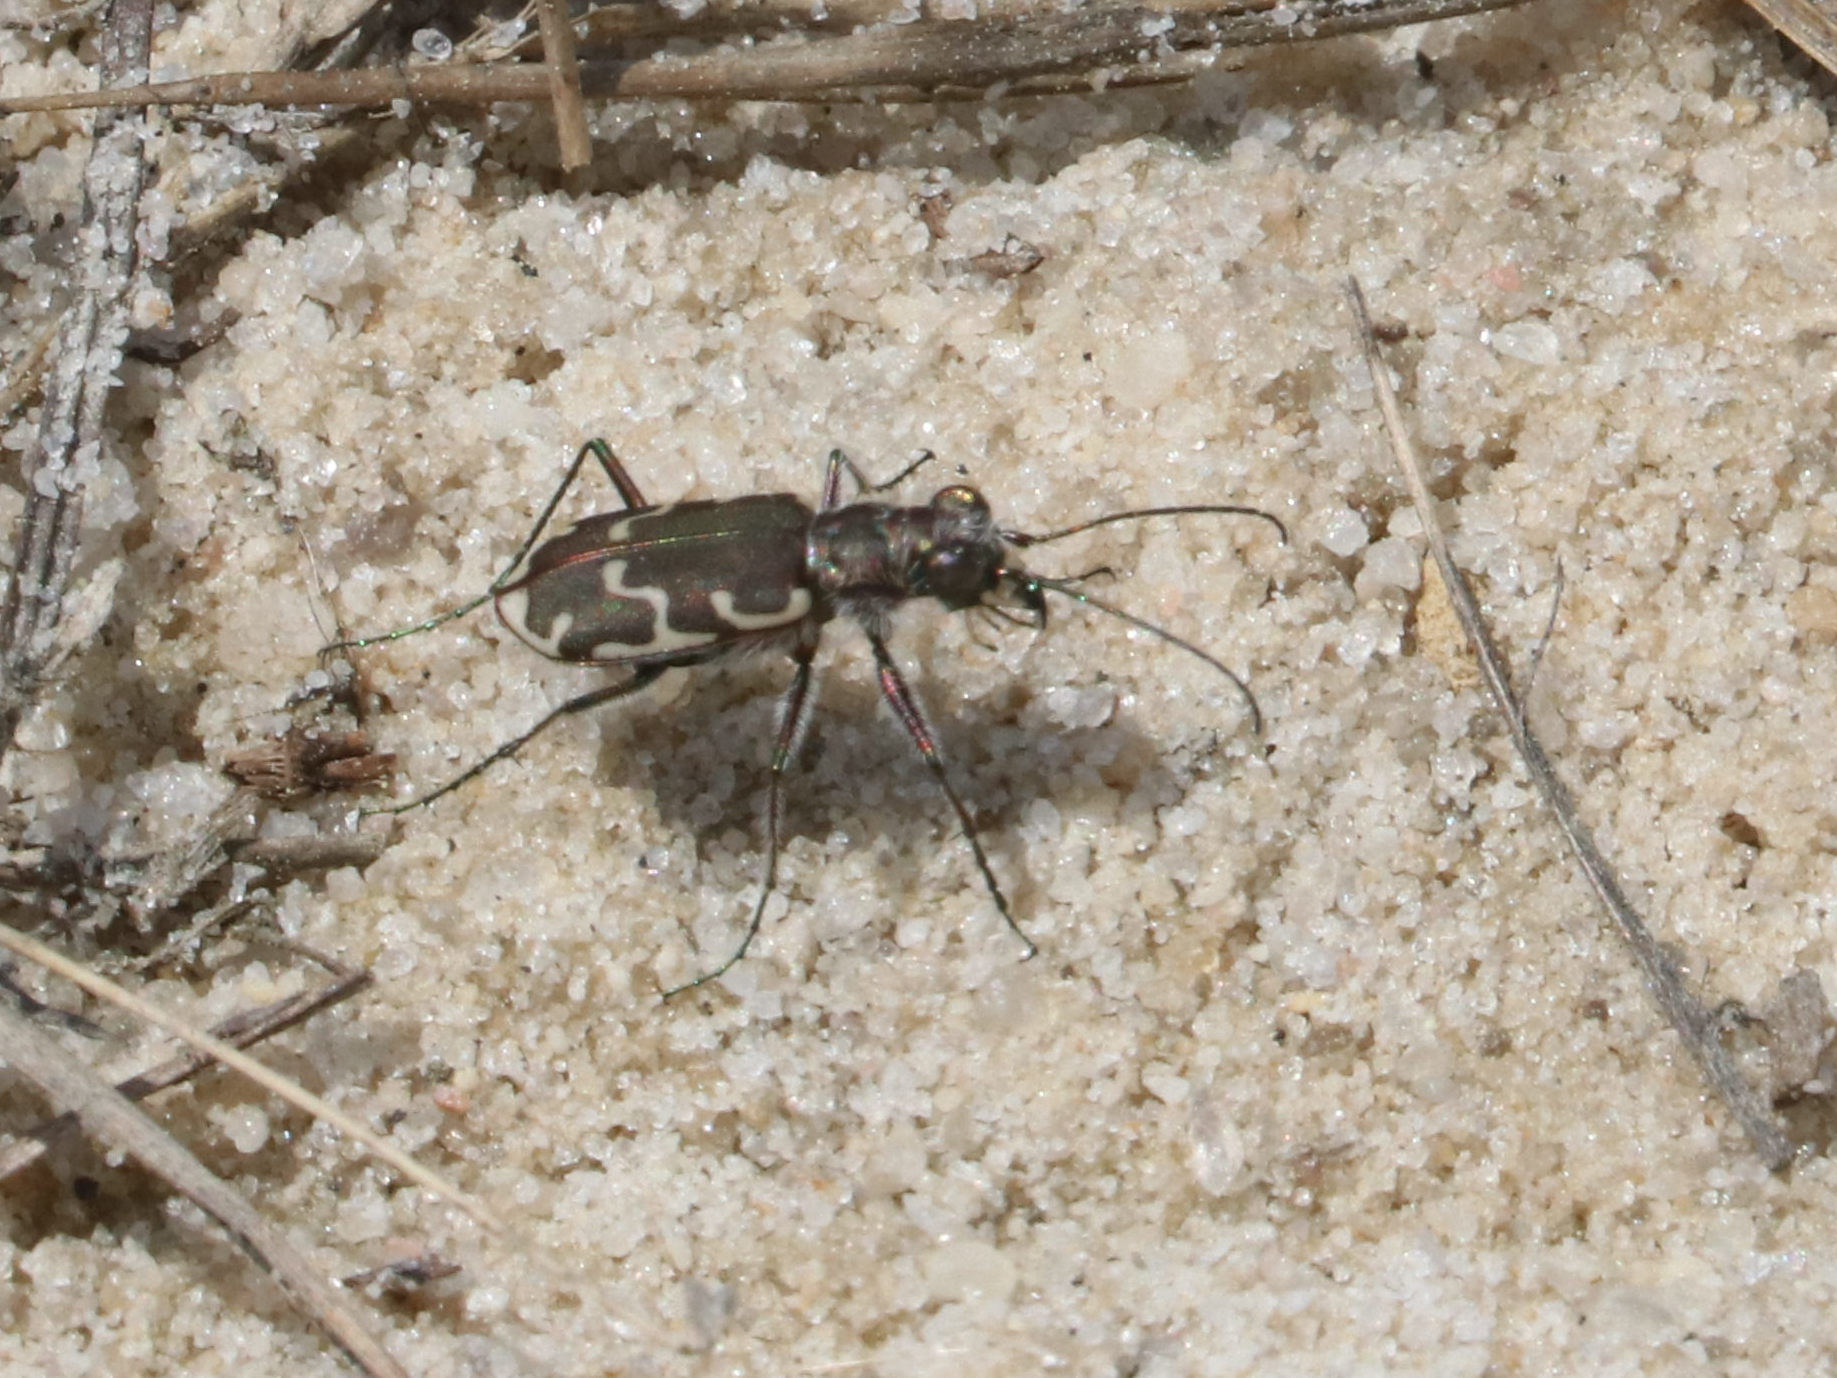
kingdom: Animalia
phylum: Arthropoda
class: Insecta
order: Coleoptera
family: Carabidae
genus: Cicindela
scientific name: Cicindela repanda
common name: Bronzed tiger beetle
